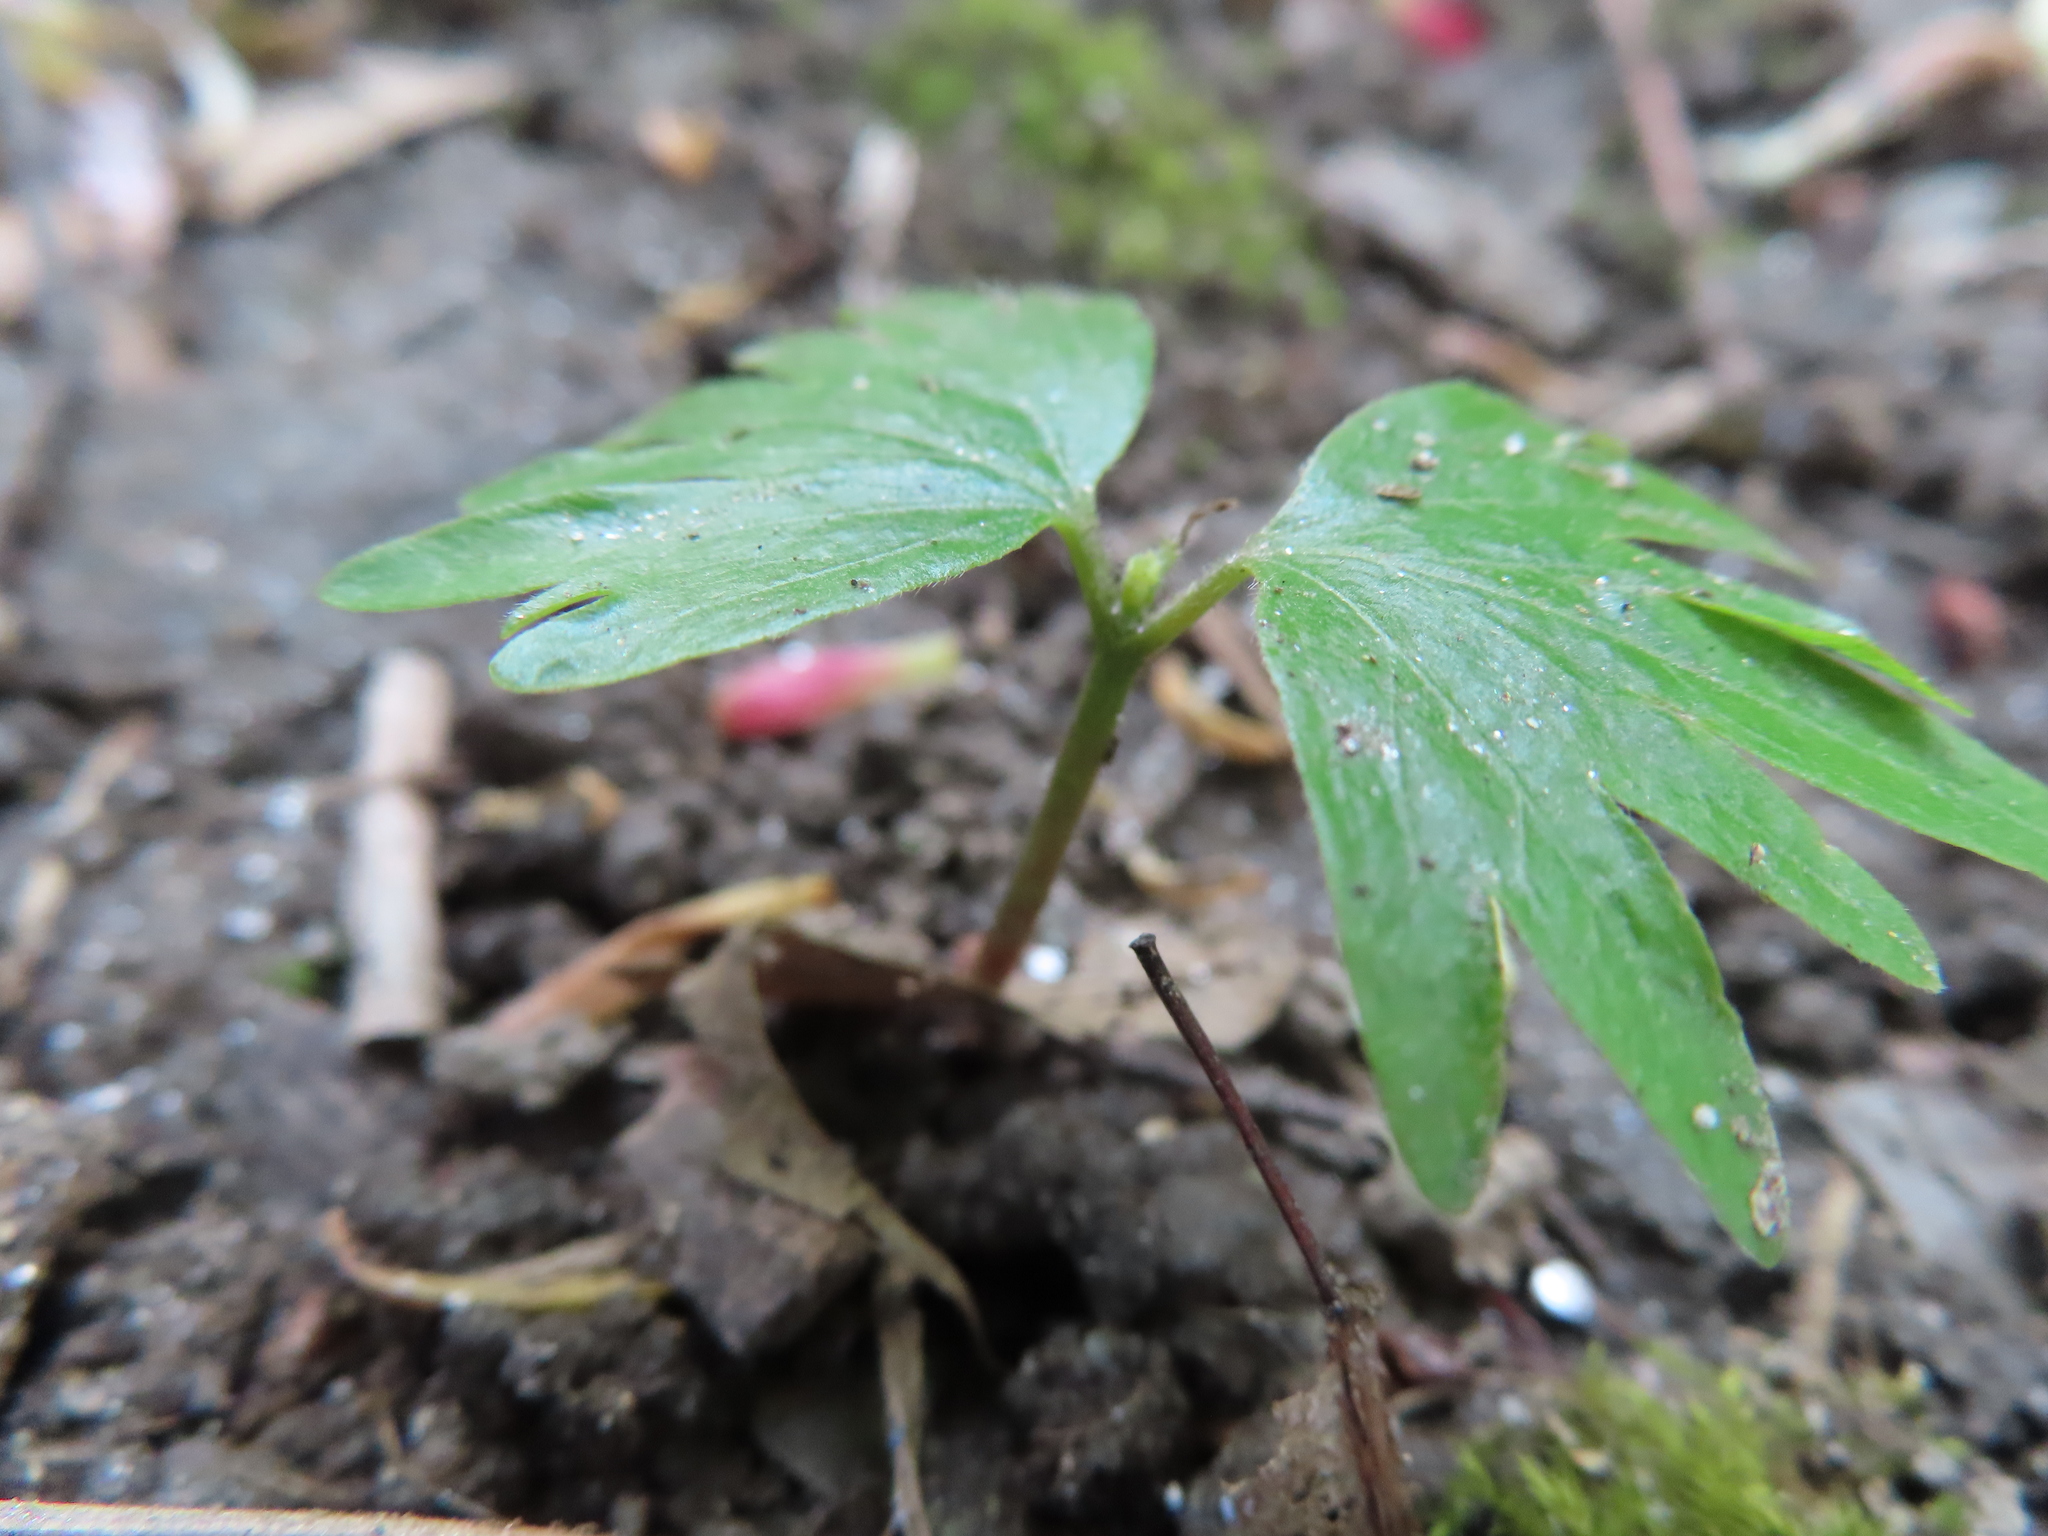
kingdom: Plantae
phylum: Tracheophyta
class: Magnoliopsida
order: Malvales
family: Malvaceae
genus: Tilia
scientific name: Tilia americana
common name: Basswood
